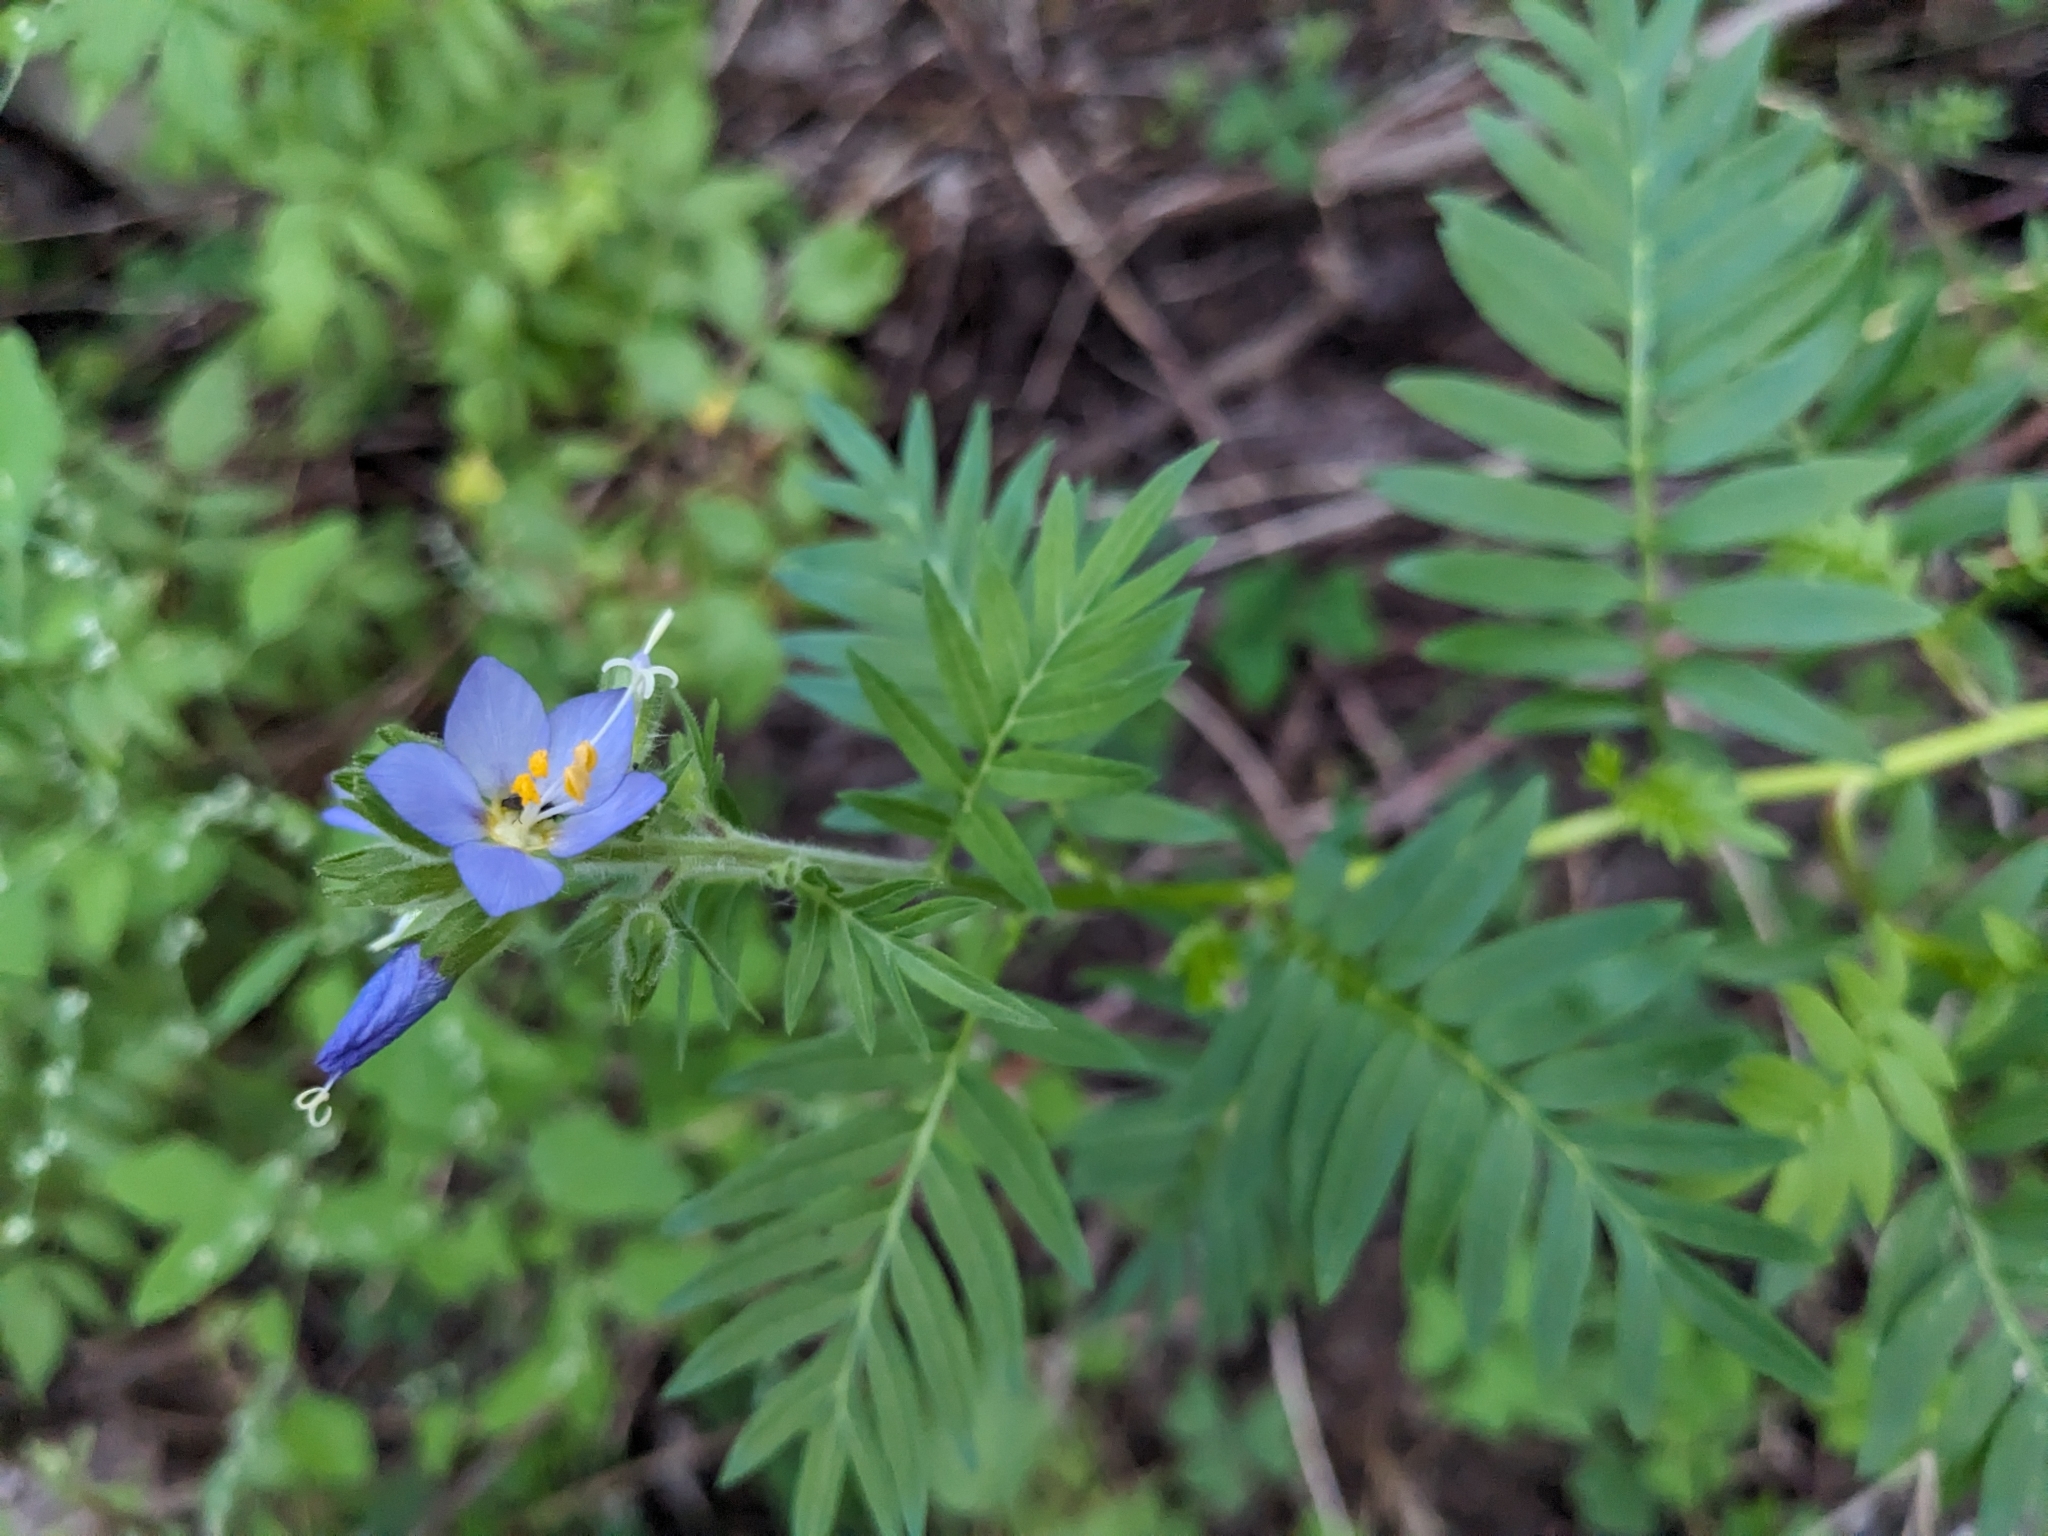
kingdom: Plantae
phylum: Tracheophyta
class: Magnoliopsida
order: Ericales
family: Polemoniaceae
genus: Polemonium
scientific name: Polemonium foliosissimum
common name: Leafy jacob's-ladder
